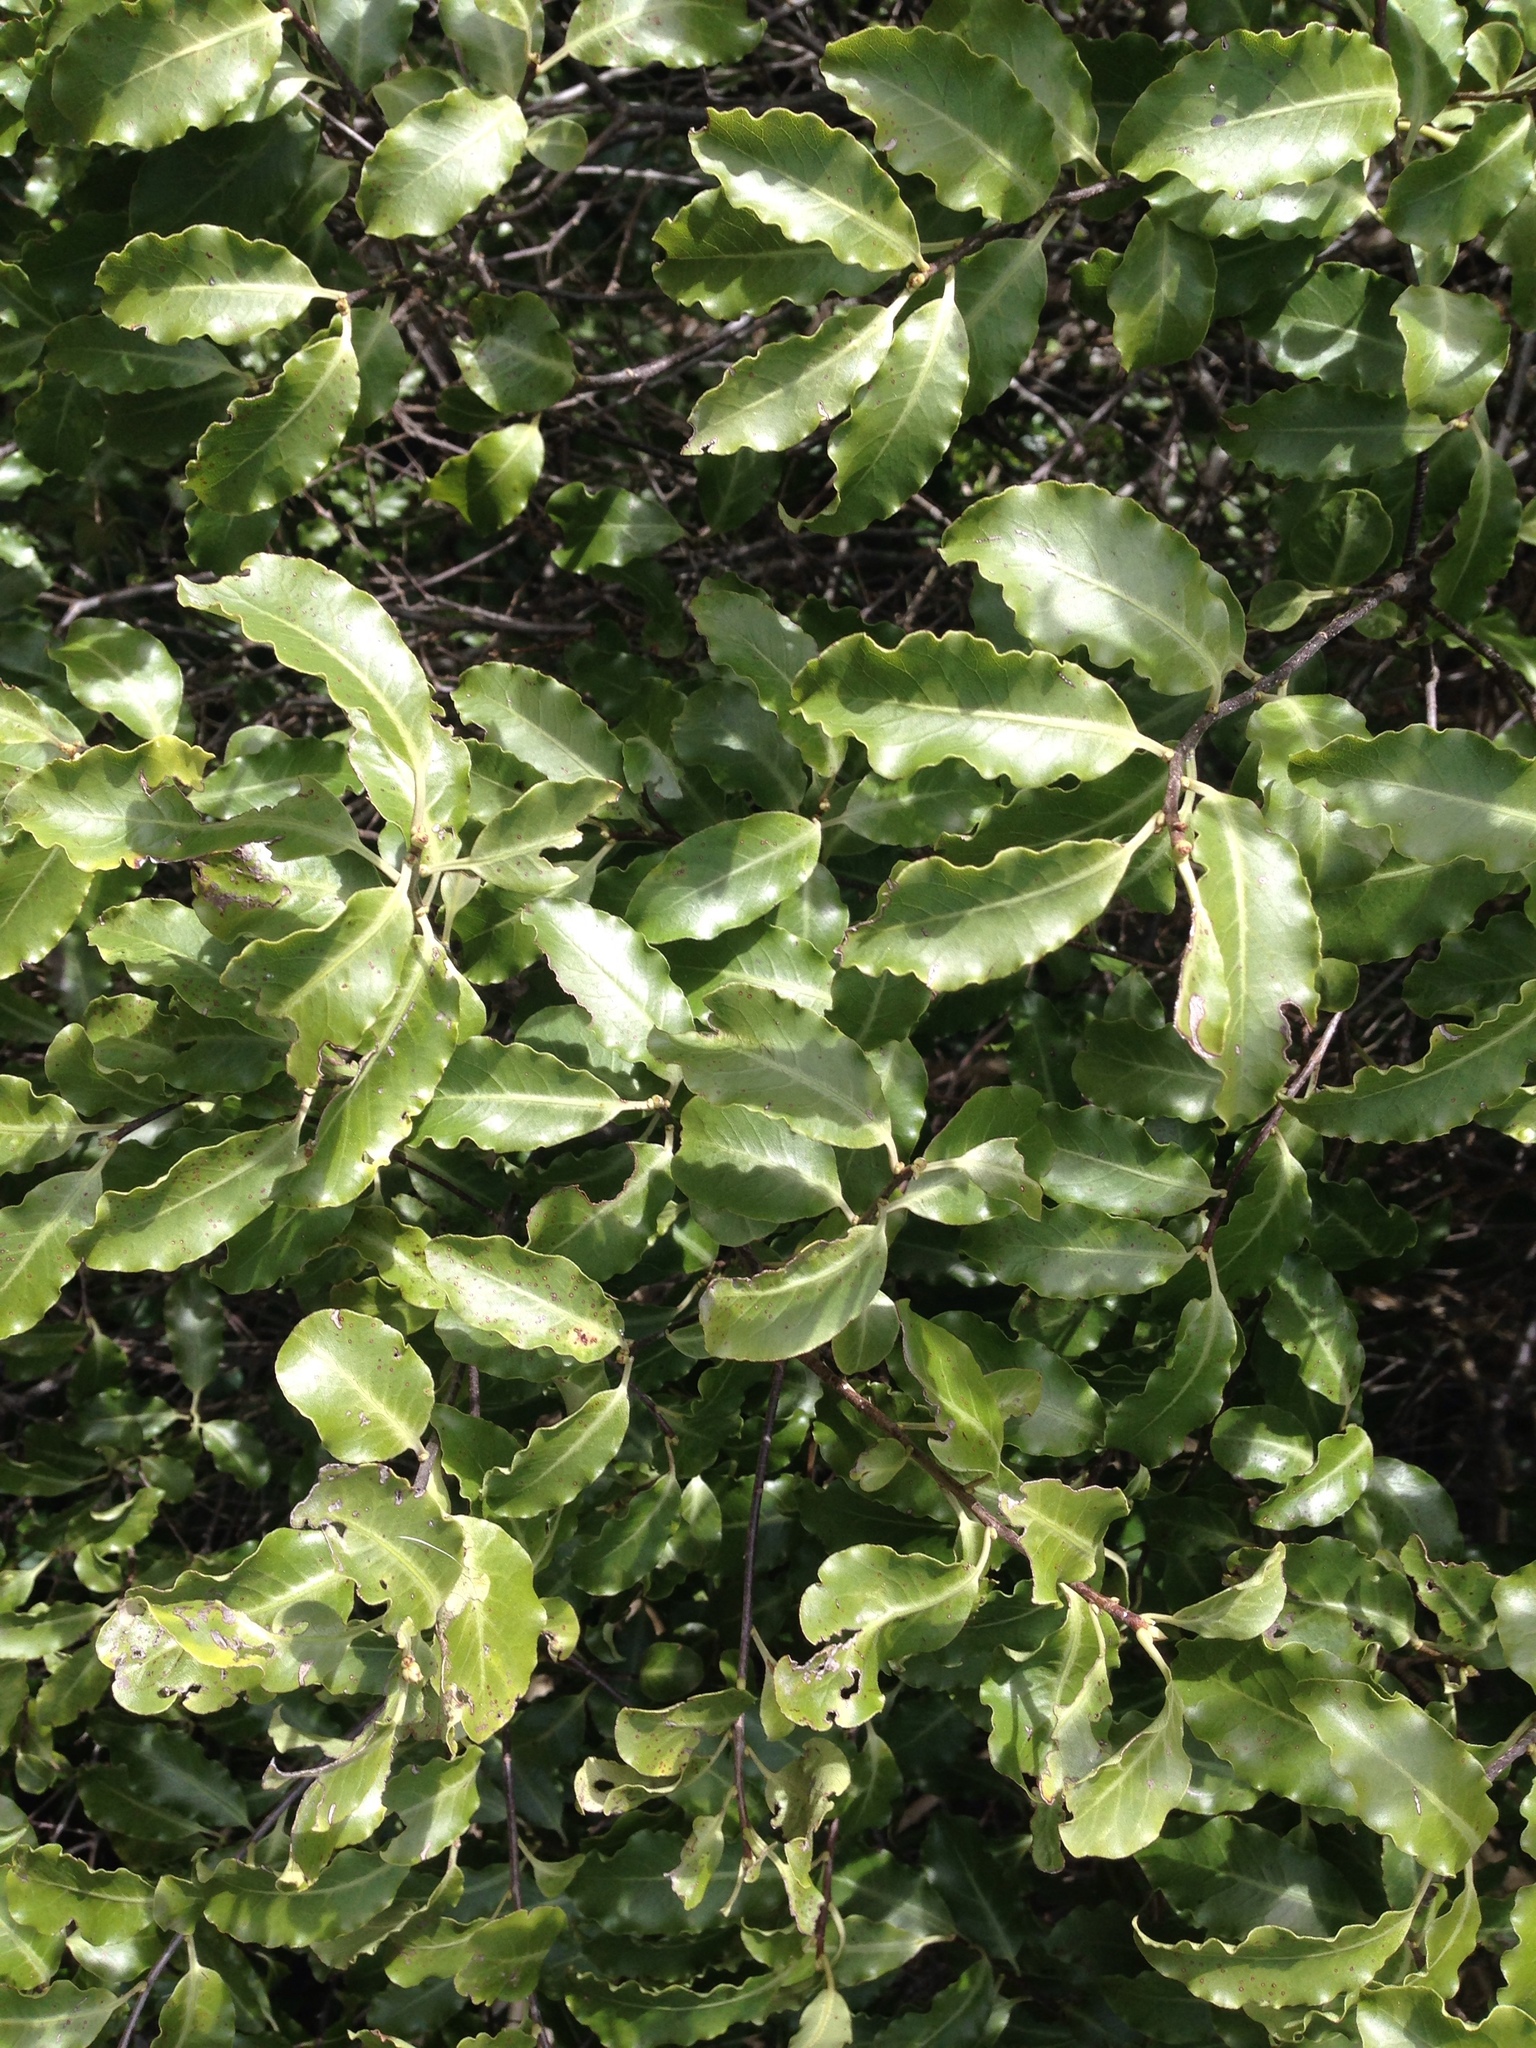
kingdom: Plantae
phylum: Tracheophyta
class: Magnoliopsida
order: Apiales
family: Pittosporaceae
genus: Pittosporum
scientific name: Pittosporum tenuifolium
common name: Kohuhu
